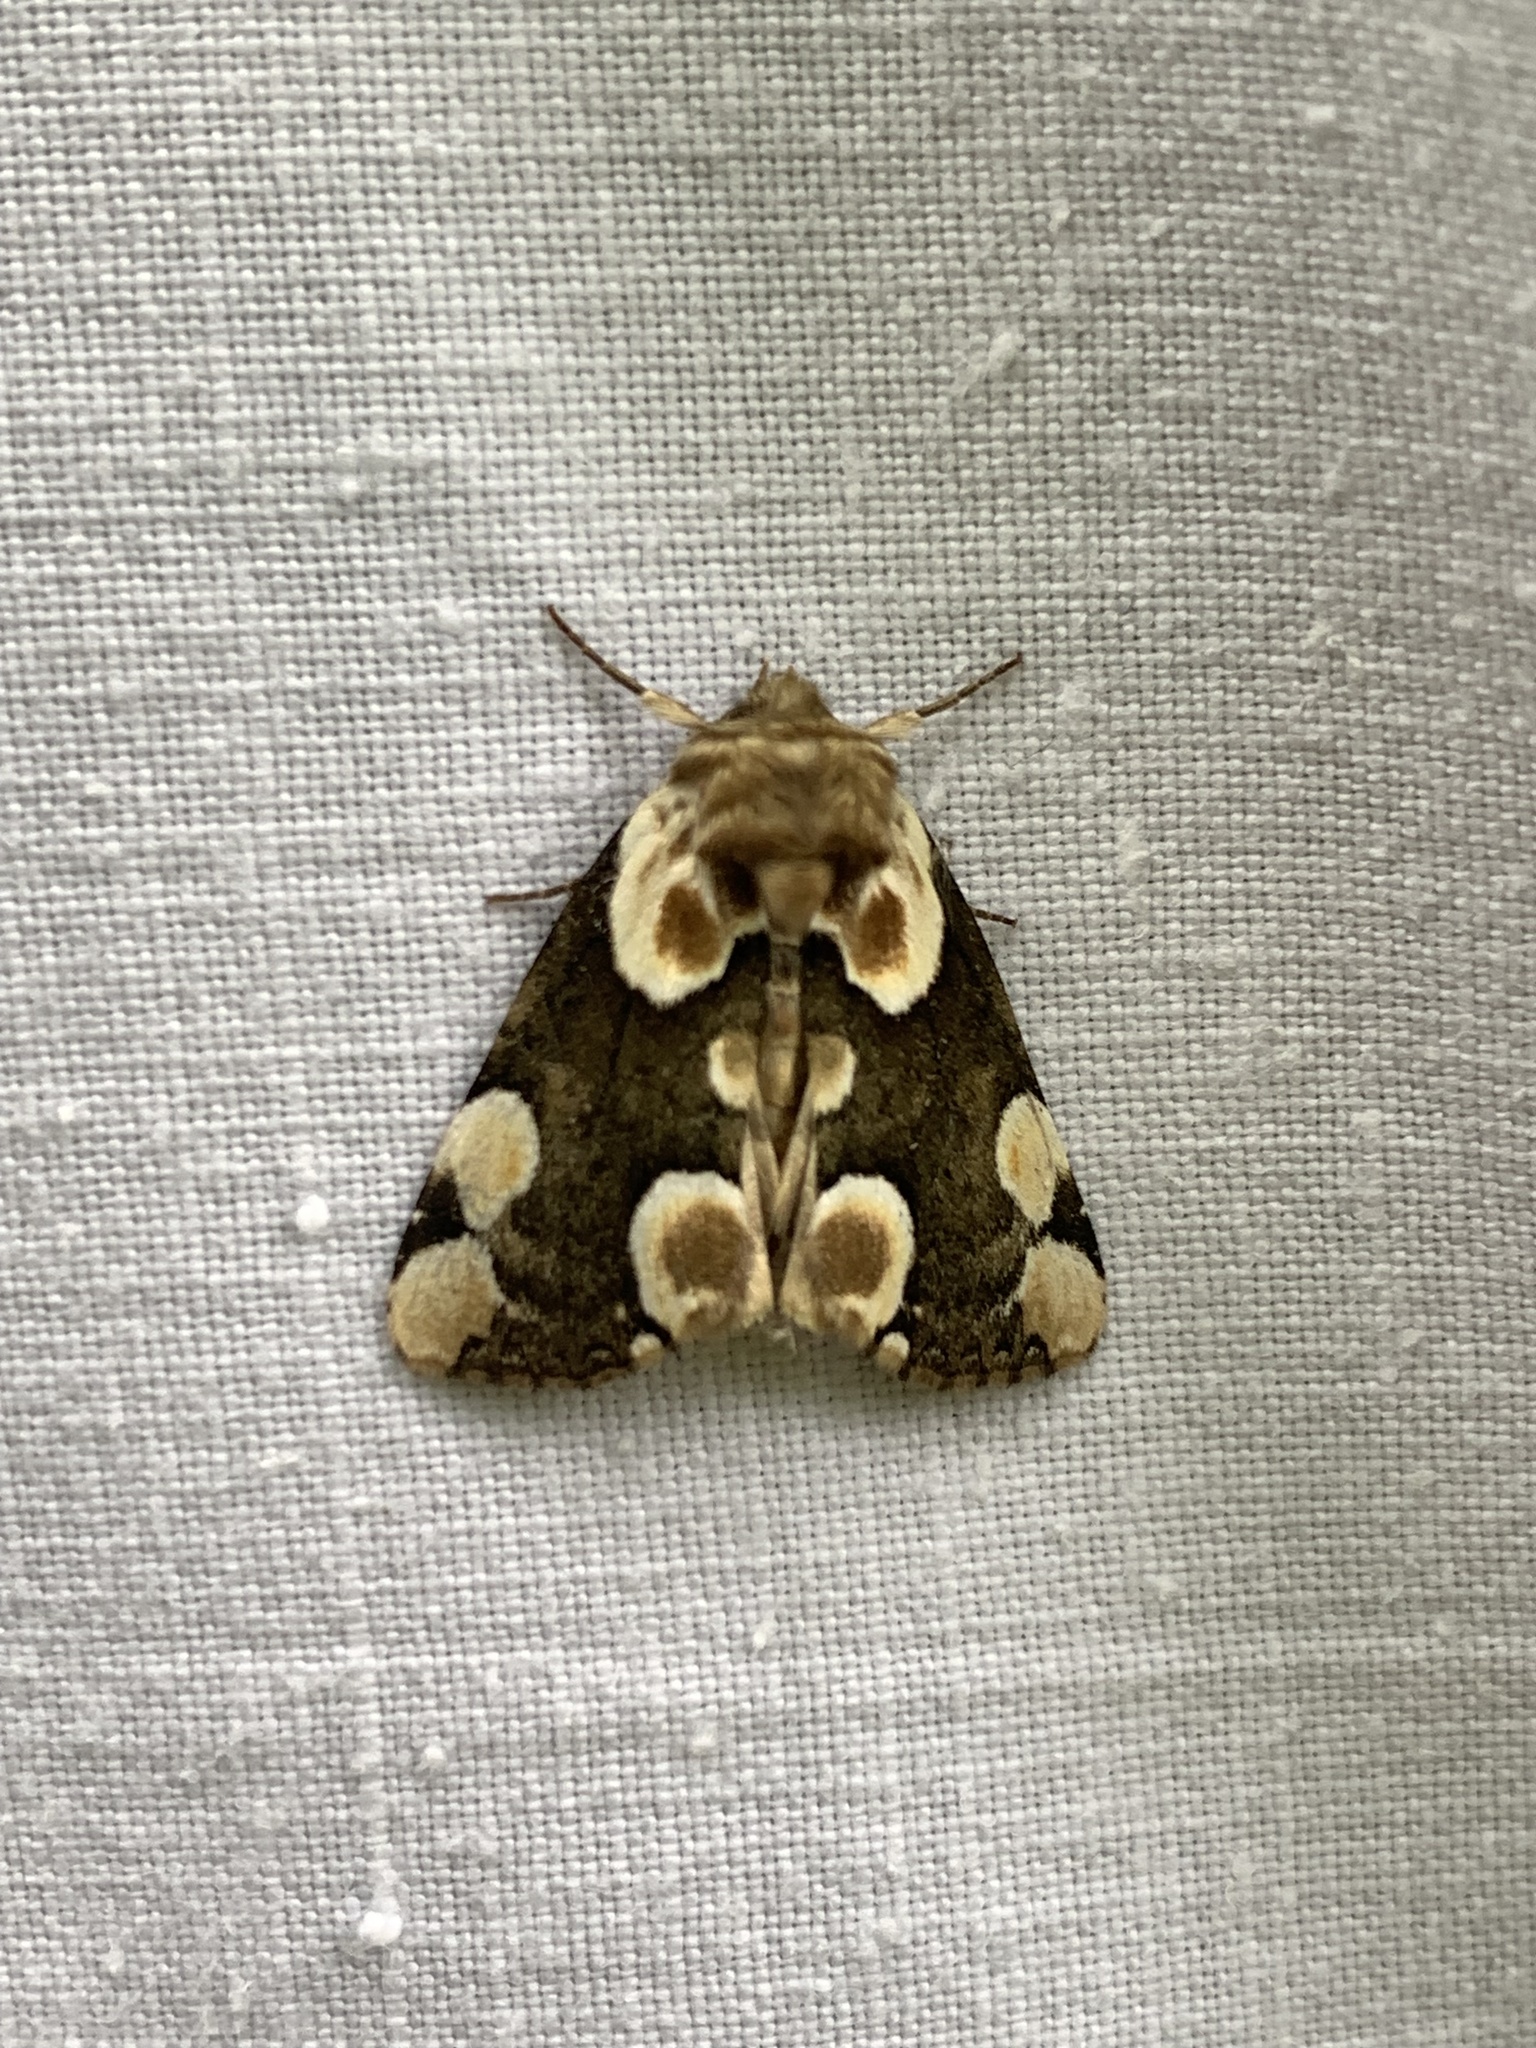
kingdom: Animalia
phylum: Arthropoda
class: Insecta
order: Lepidoptera
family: Drepanidae
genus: Thyatira
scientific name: Thyatira batis
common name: Peach blossom
